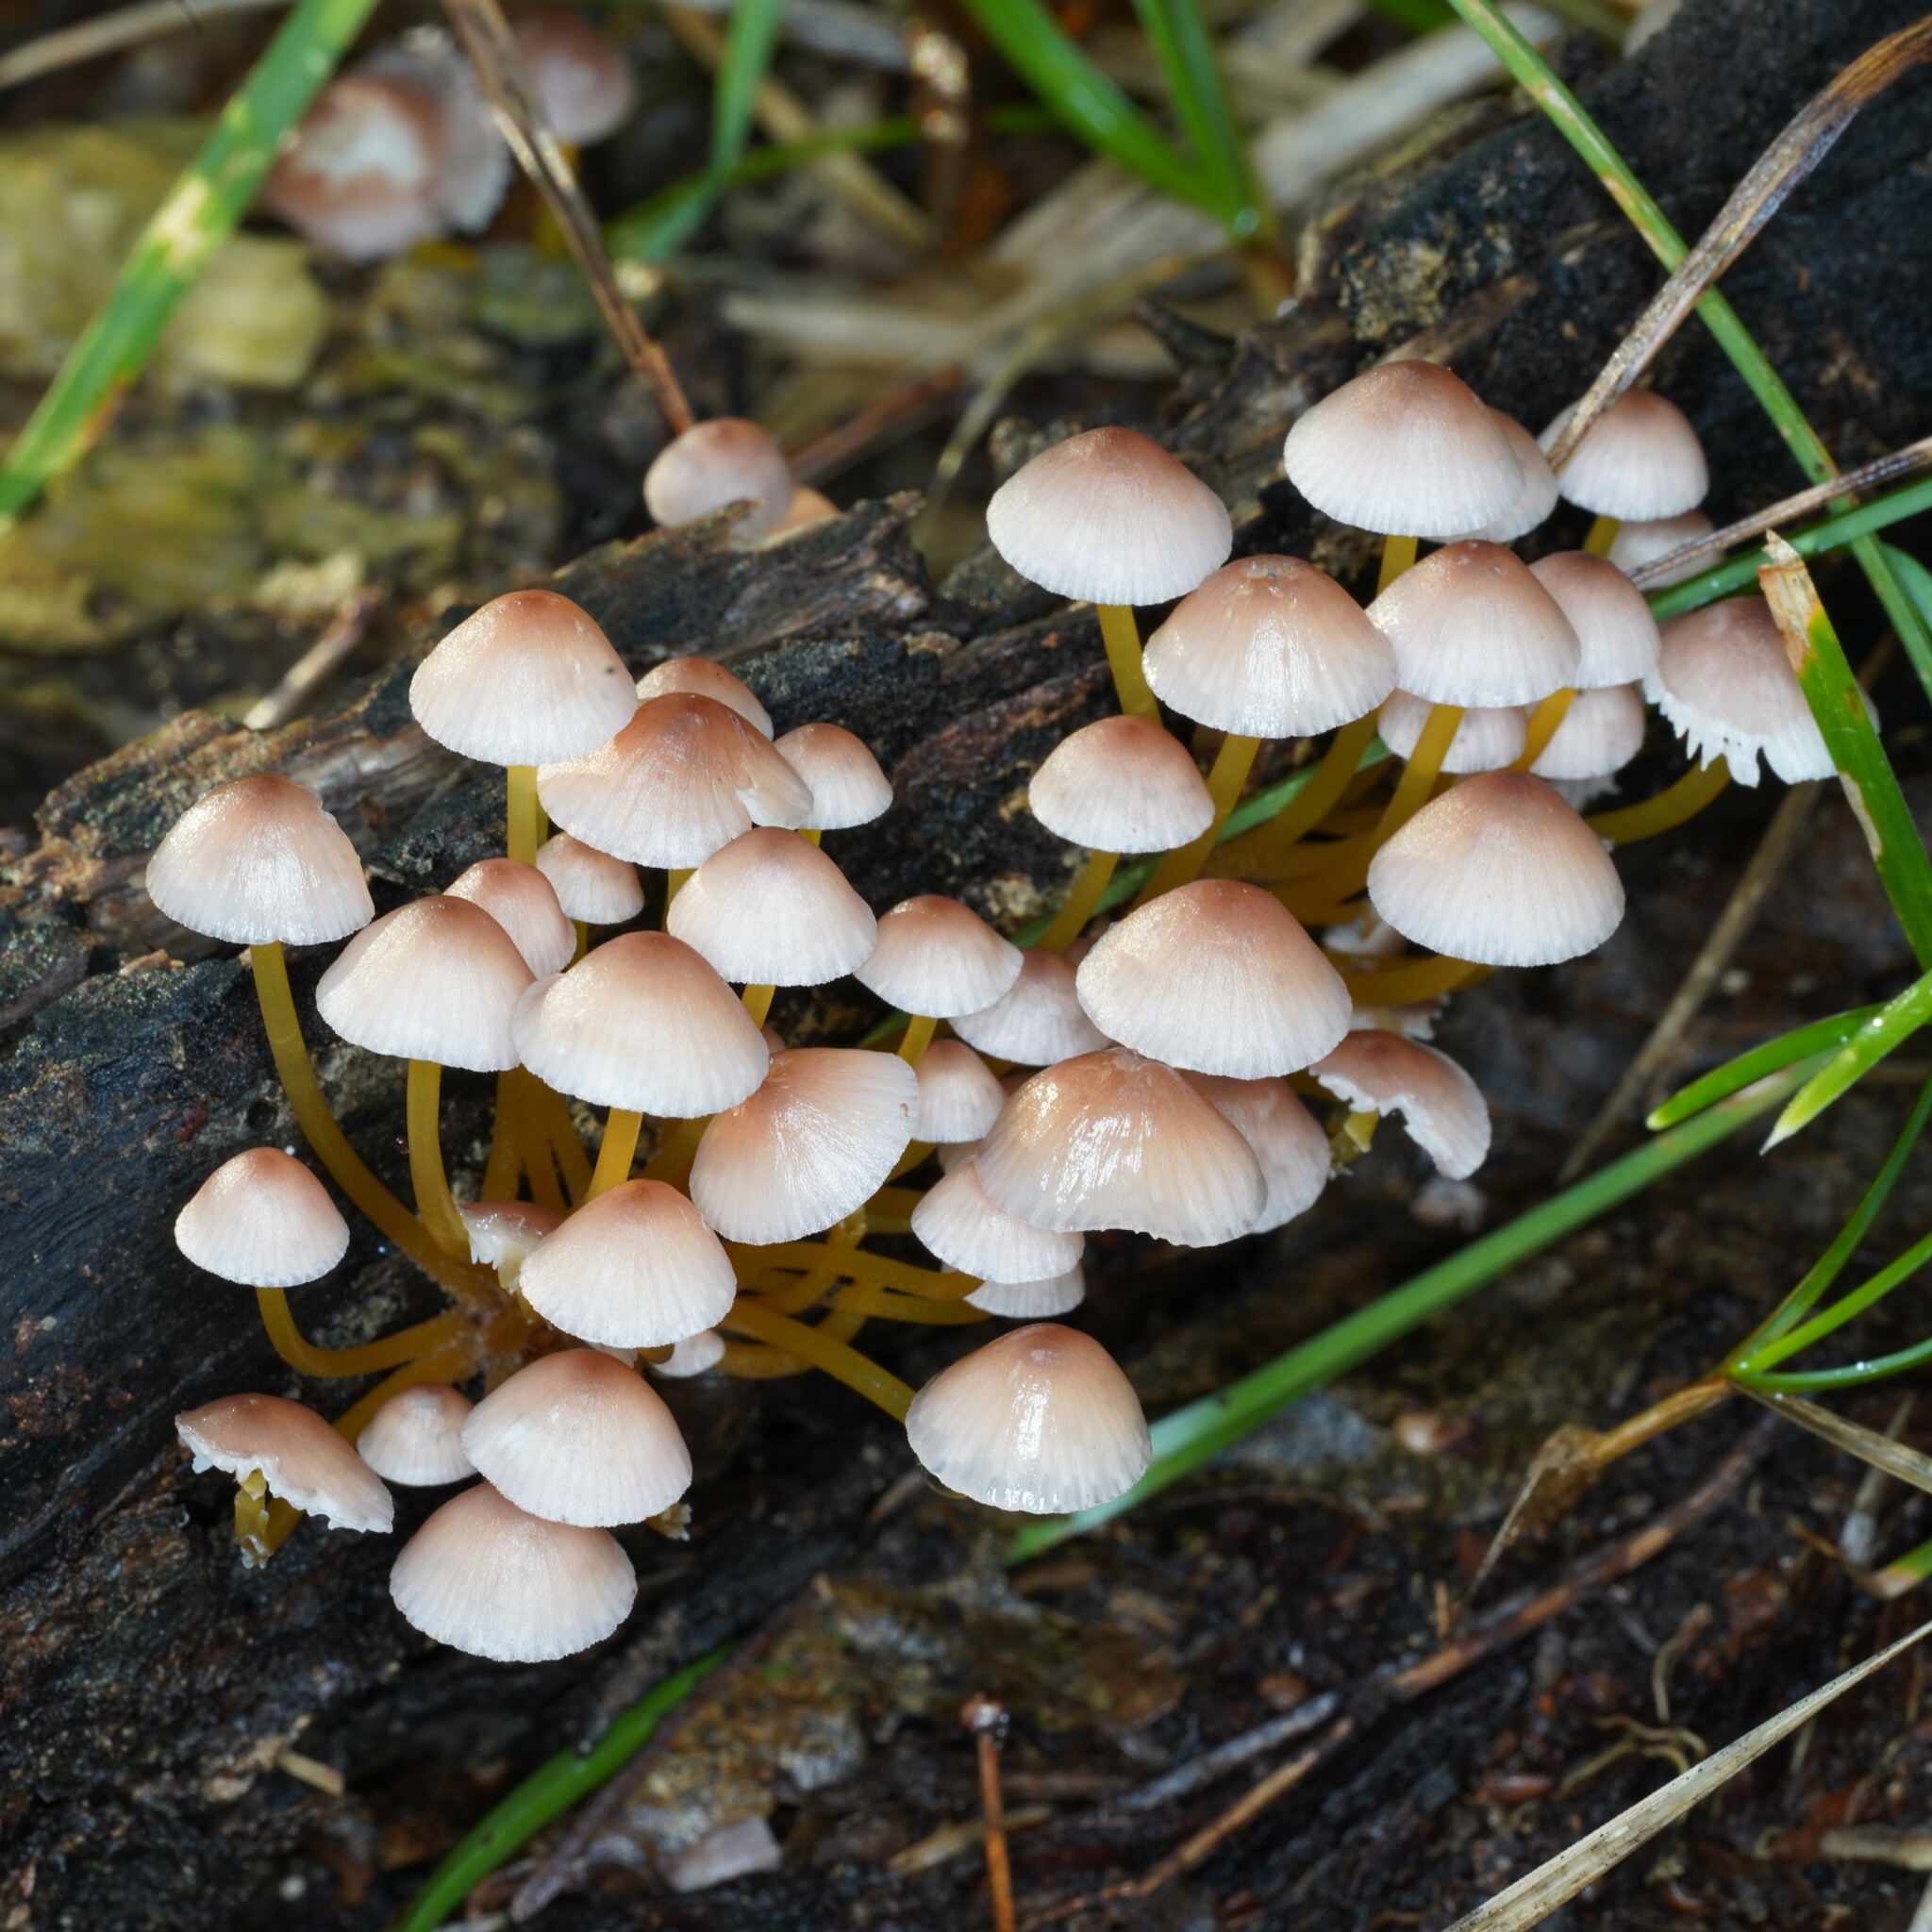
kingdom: Fungi
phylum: Basidiomycota
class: Agaricomycetes
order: Agaricales
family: Mycenaceae
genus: Mycena
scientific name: Mycena renati
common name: Beautiful bonnet
